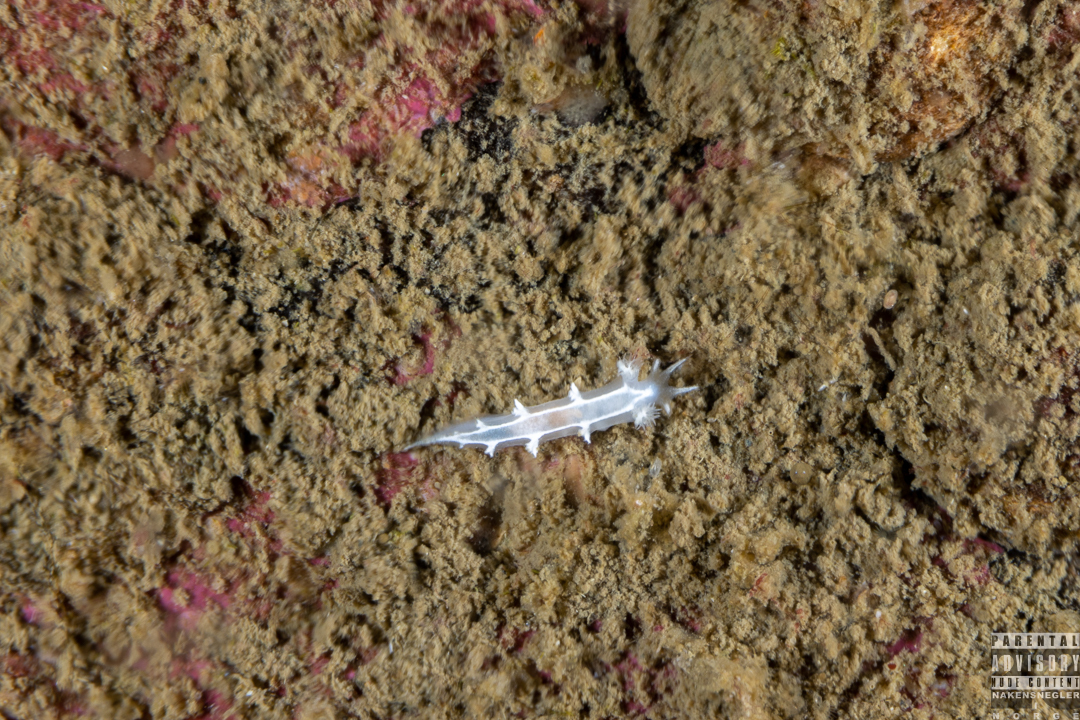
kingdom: Animalia
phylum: Mollusca
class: Gastropoda
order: Nudibranchia
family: Tritoniidae
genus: Duvaucelia
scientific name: Duvaucelia lineata
